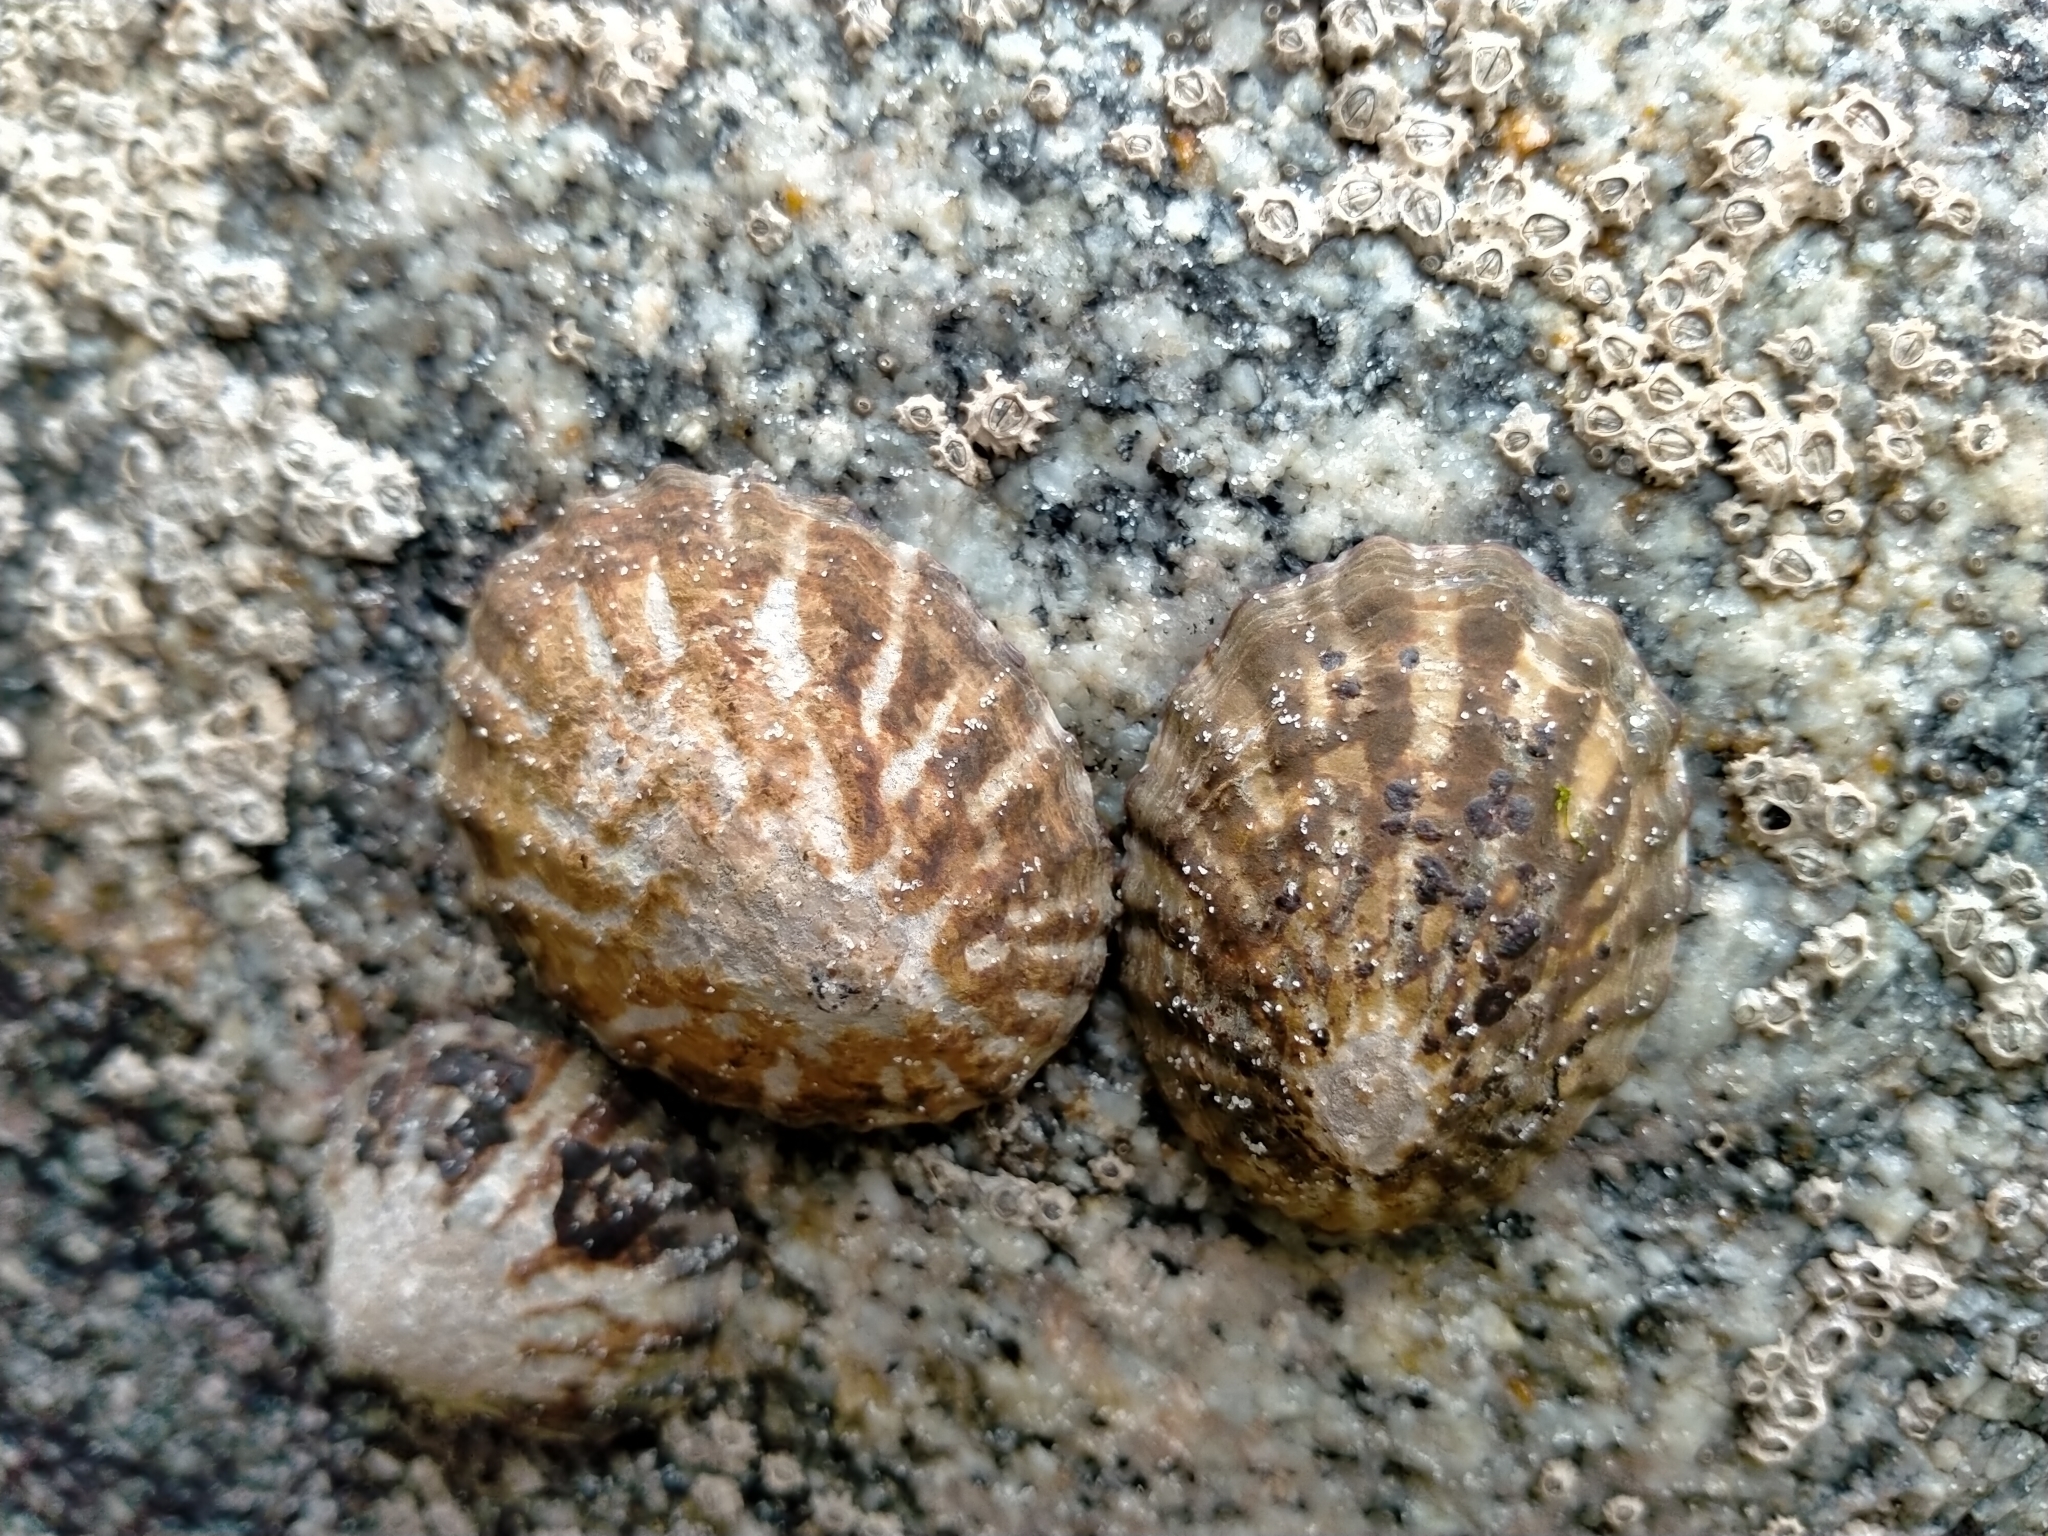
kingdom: Animalia
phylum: Mollusca
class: Gastropoda
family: Nacellidae
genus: Cellana
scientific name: Cellana strigilis
